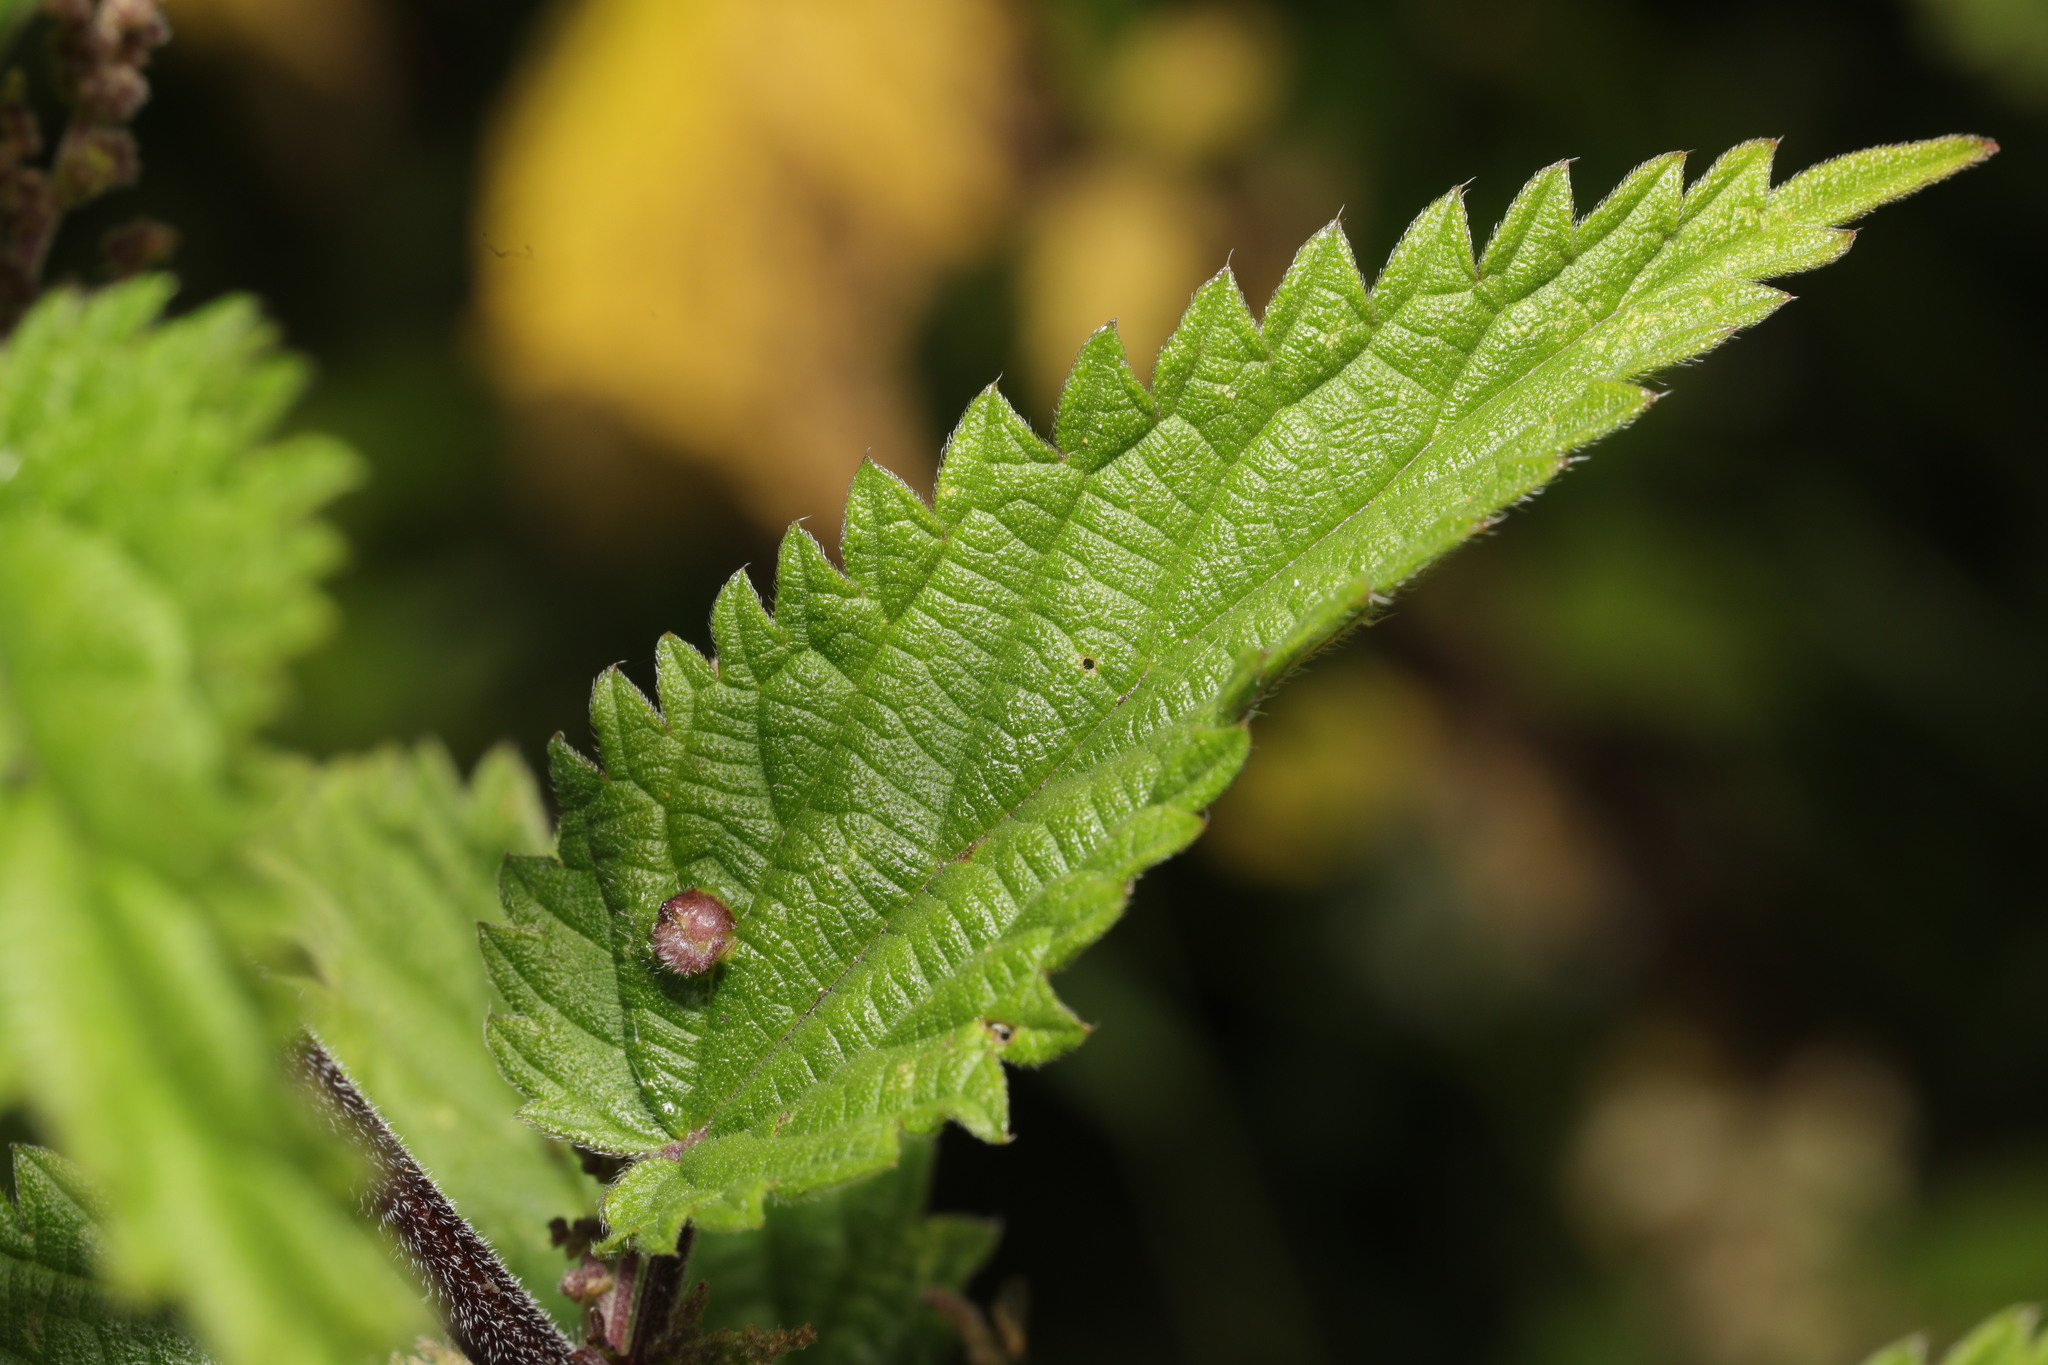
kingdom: Animalia
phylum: Arthropoda
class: Insecta
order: Diptera
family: Cecidomyiidae
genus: Dasineura
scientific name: Dasineura urticae
